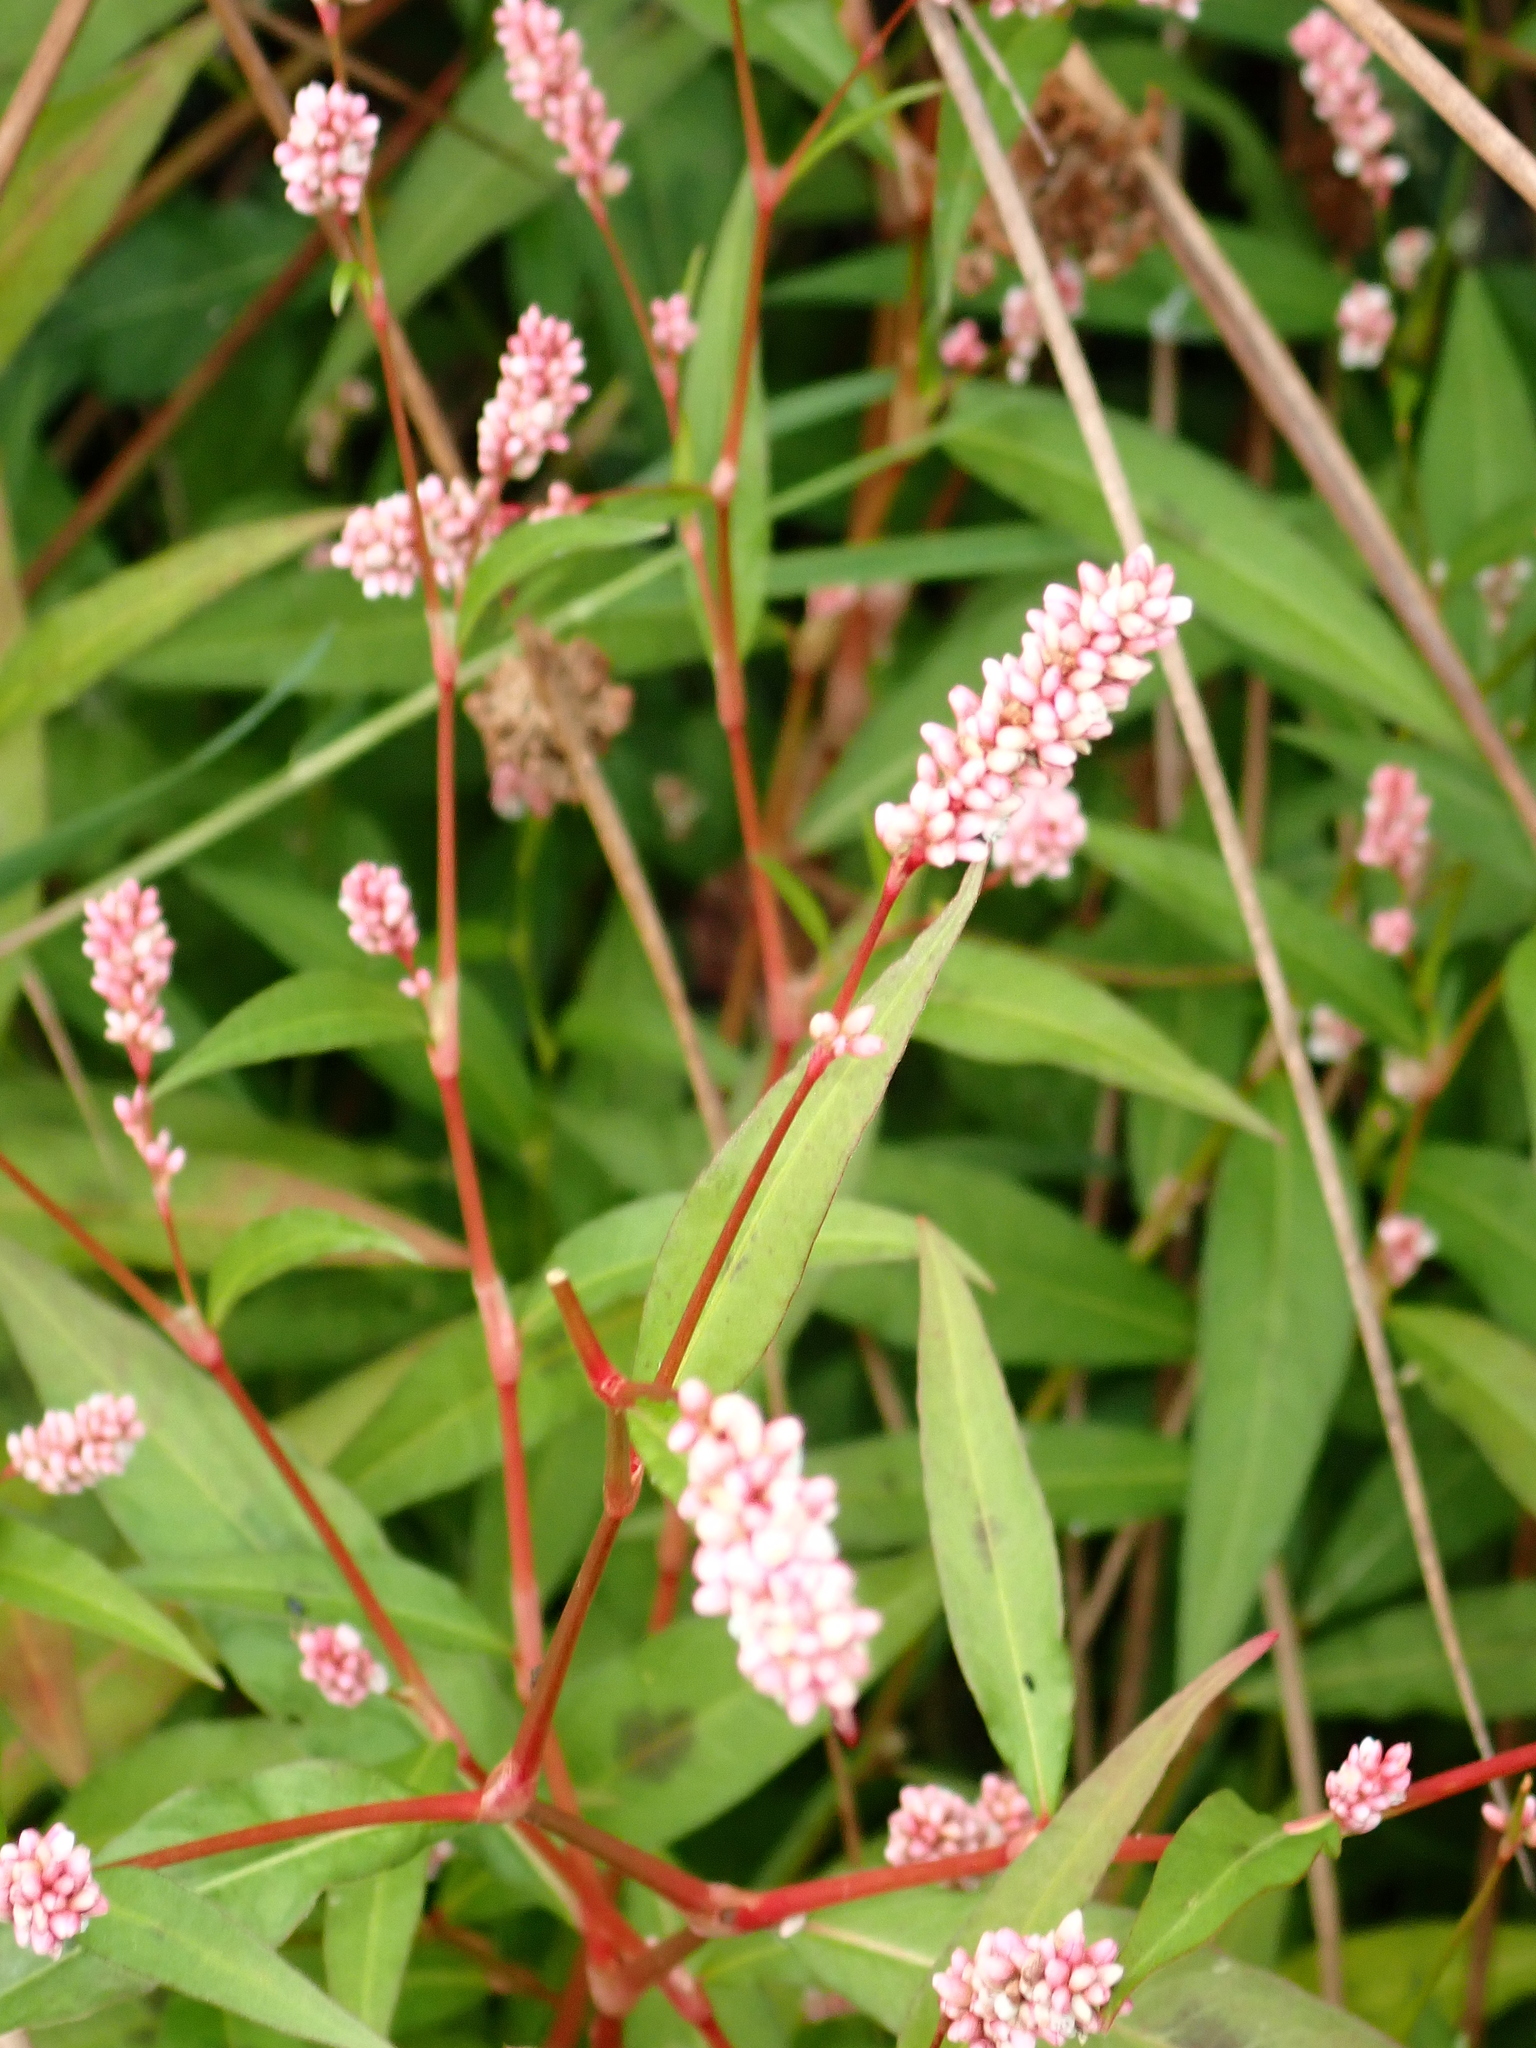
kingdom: Plantae
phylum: Tracheophyta
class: Magnoliopsida
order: Caryophyllales
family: Polygonaceae
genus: Persicaria
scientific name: Persicaria maculosa
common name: Redshank
